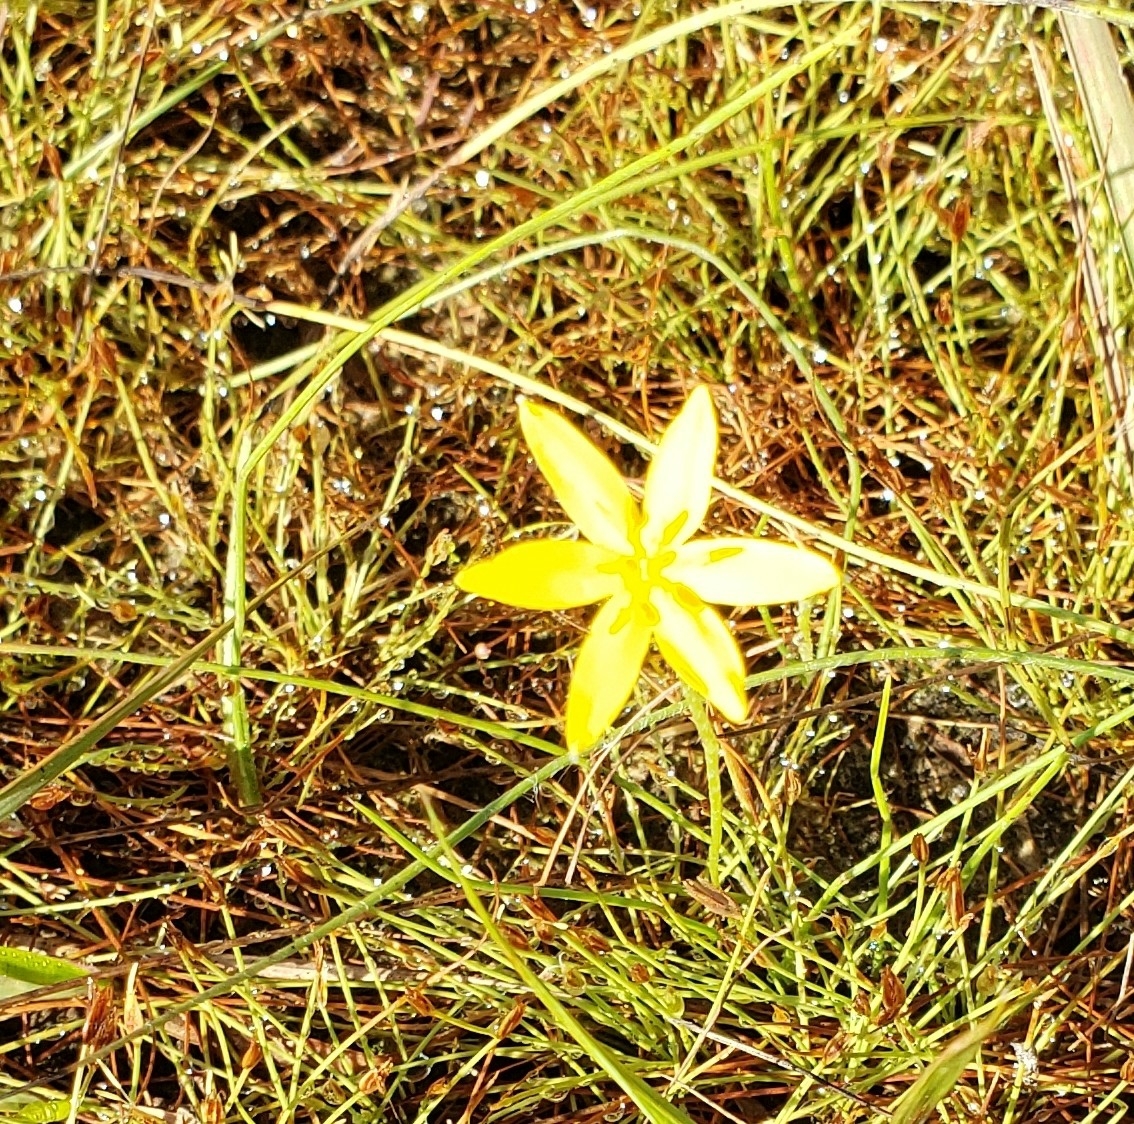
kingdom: Plantae
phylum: Tracheophyta
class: Liliopsida
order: Asparagales
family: Hypoxidaceae
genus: Hypoxis
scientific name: Hypoxis juncea
